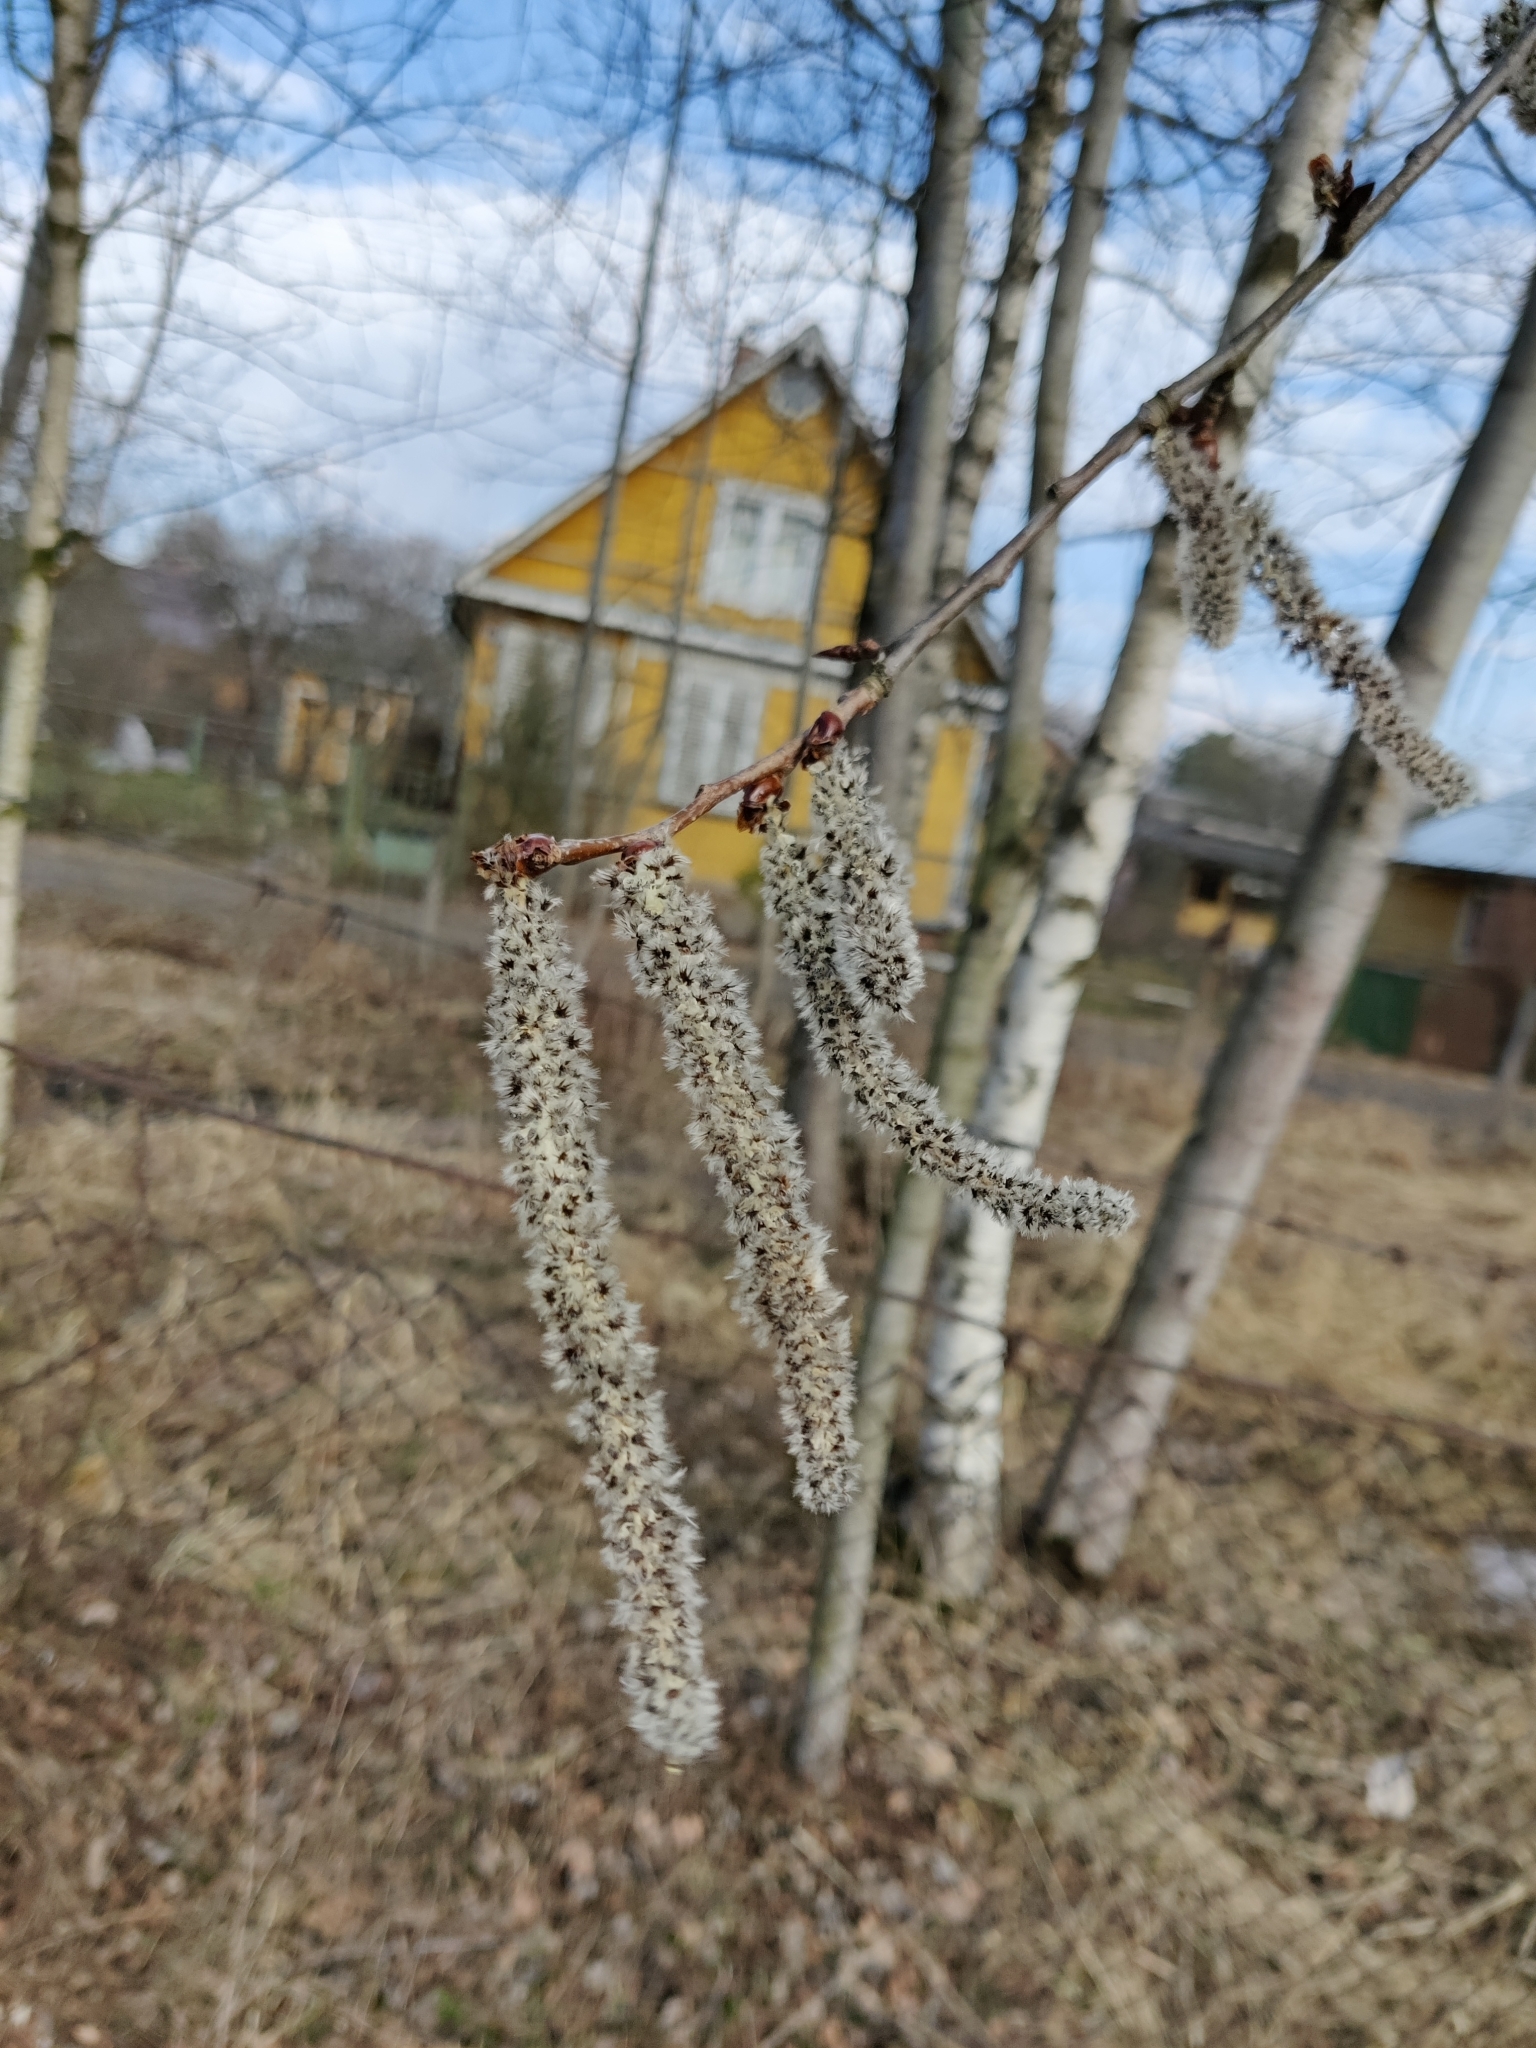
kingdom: Plantae
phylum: Tracheophyta
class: Magnoliopsida
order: Malpighiales
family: Salicaceae
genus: Populus
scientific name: Populus tremula
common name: European aspen
